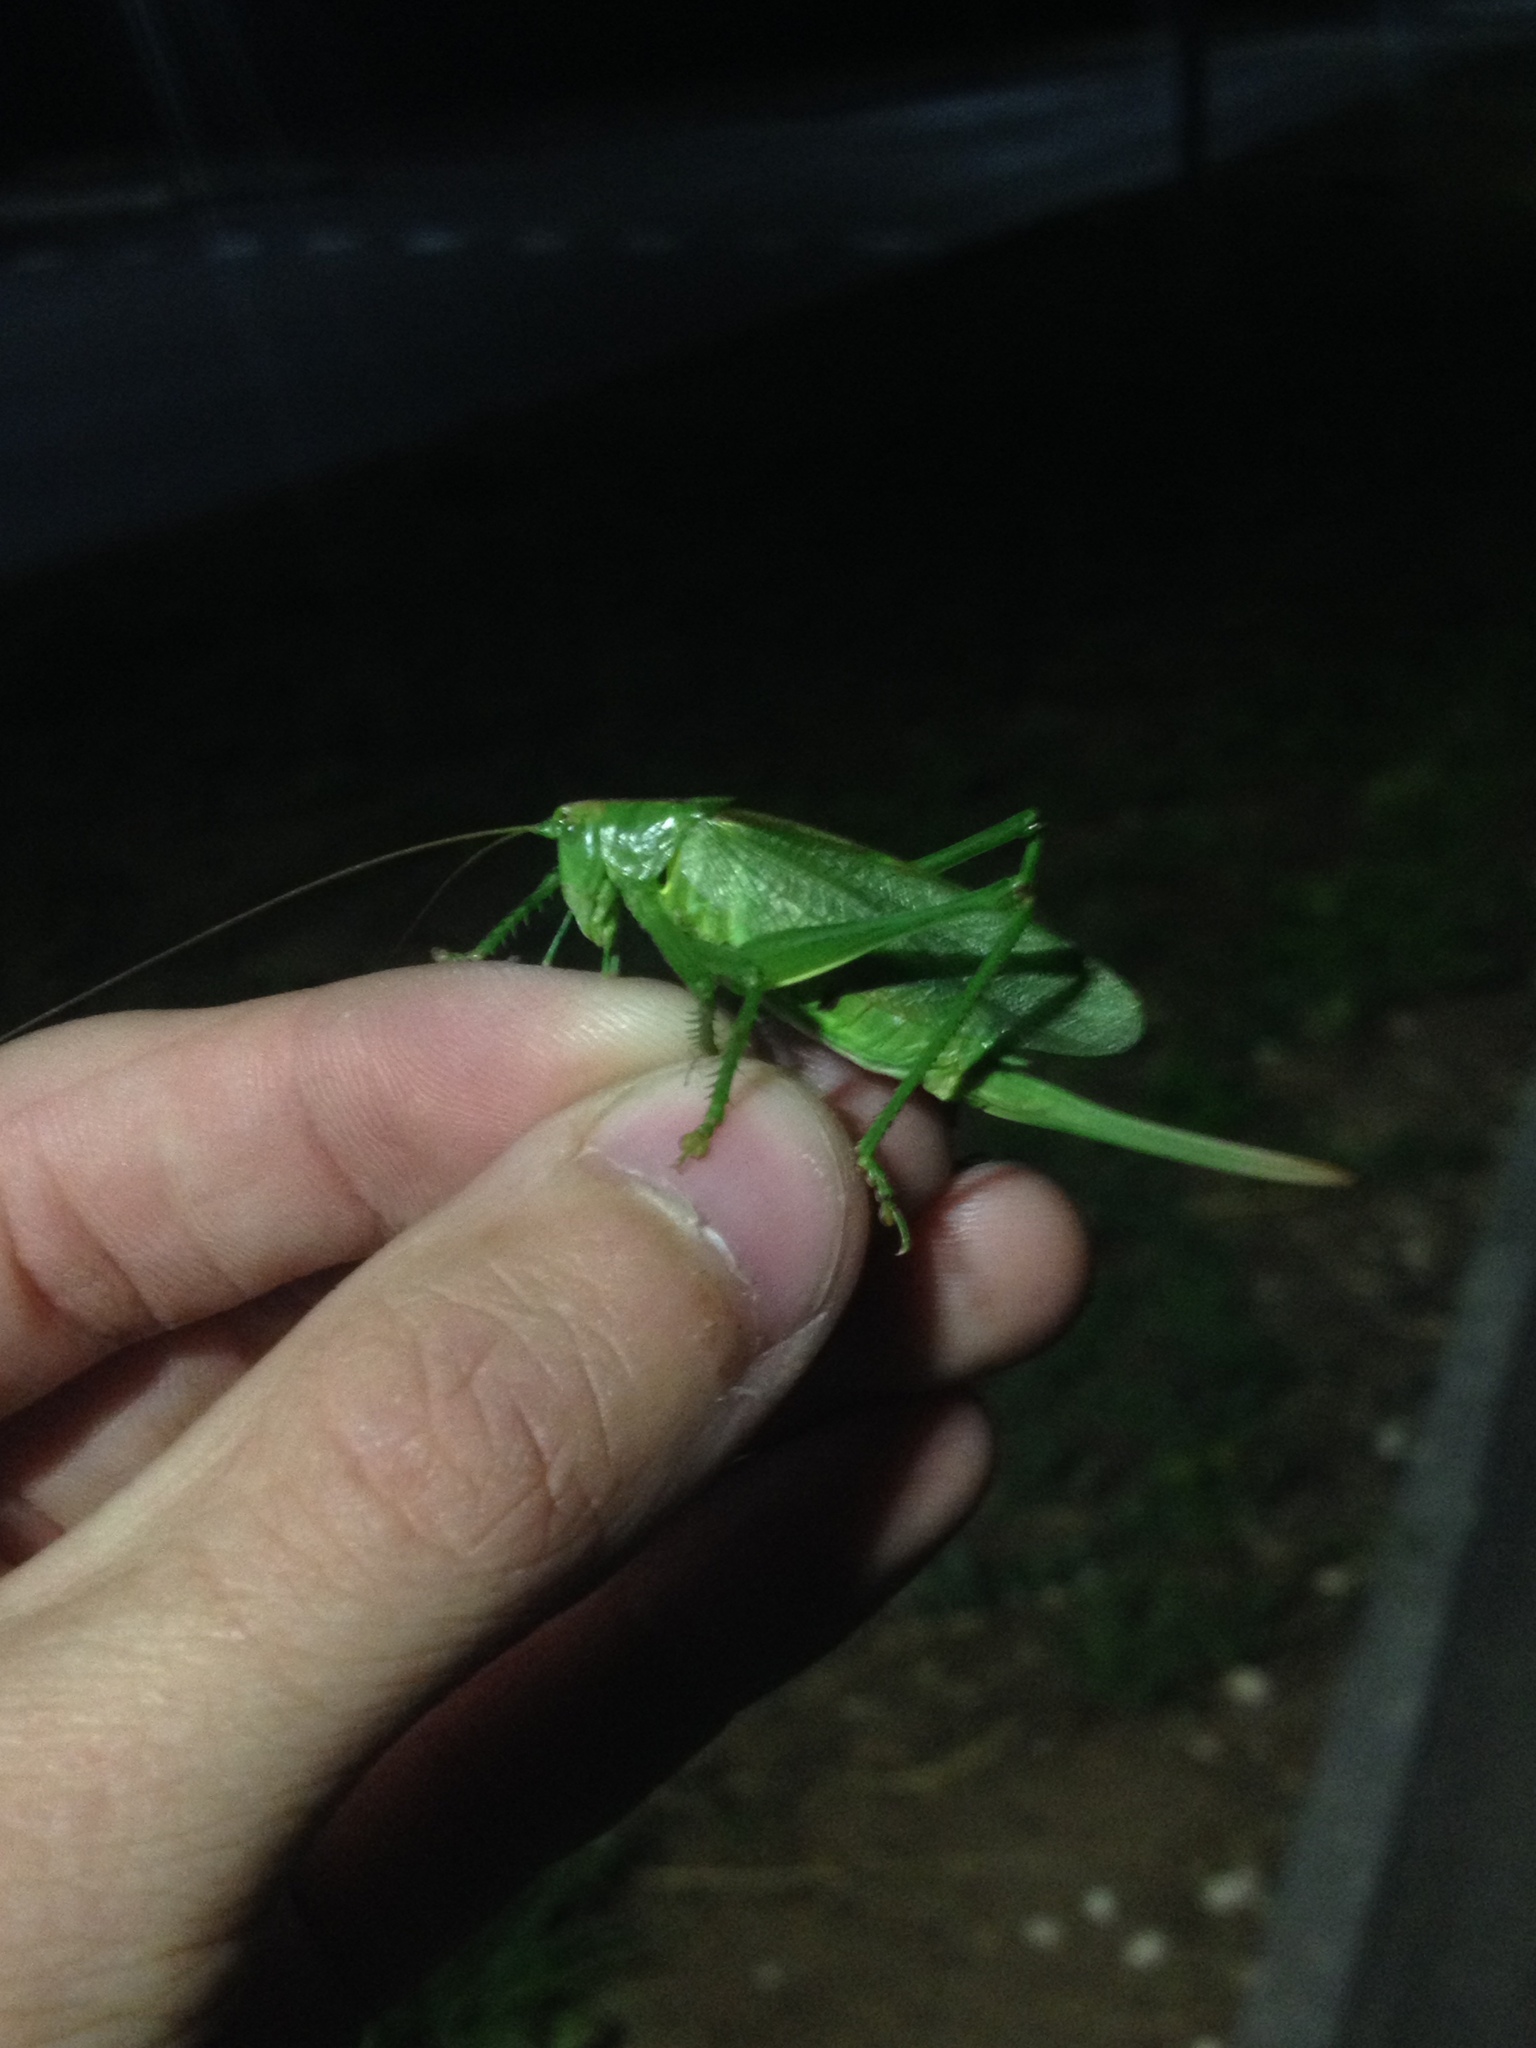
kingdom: Animalia
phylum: Arthropoda
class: Insecta
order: Orthoptera
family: Tettigoniidae
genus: Tettigonia
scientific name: Tettigonia cantans
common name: Upland green bush-cricket
